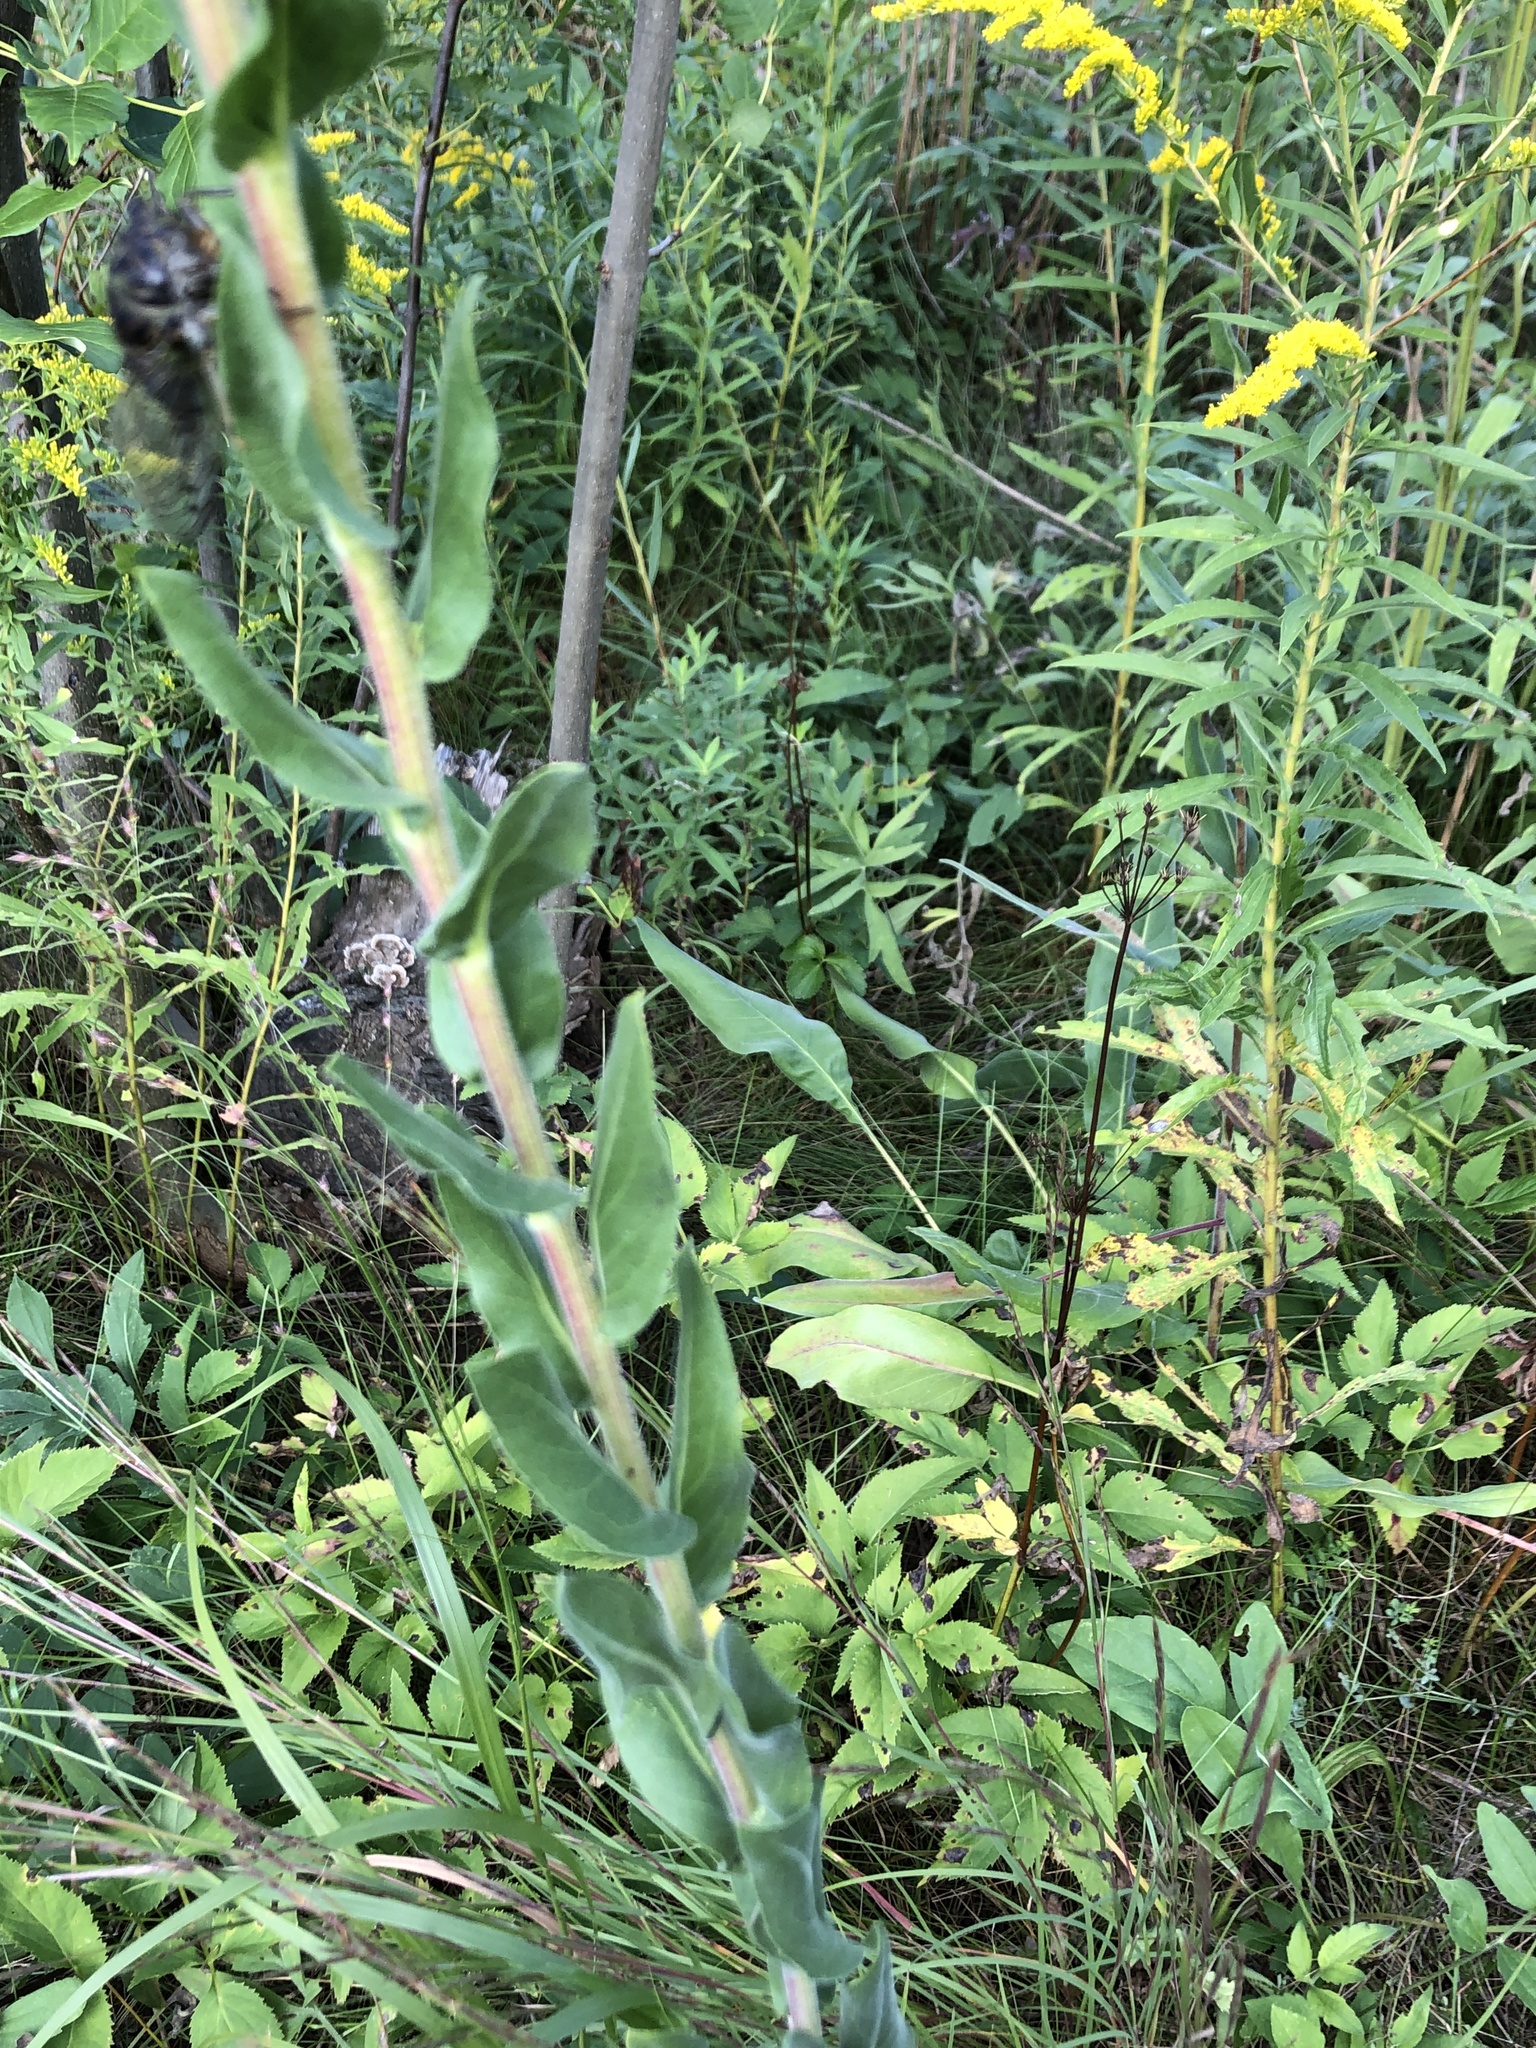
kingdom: Plantae
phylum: Tracheophyta
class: Magnoliopsida
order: Asterales
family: Asteraceae
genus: Solidago
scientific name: Solidago rigida
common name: Rigid goldenrod
